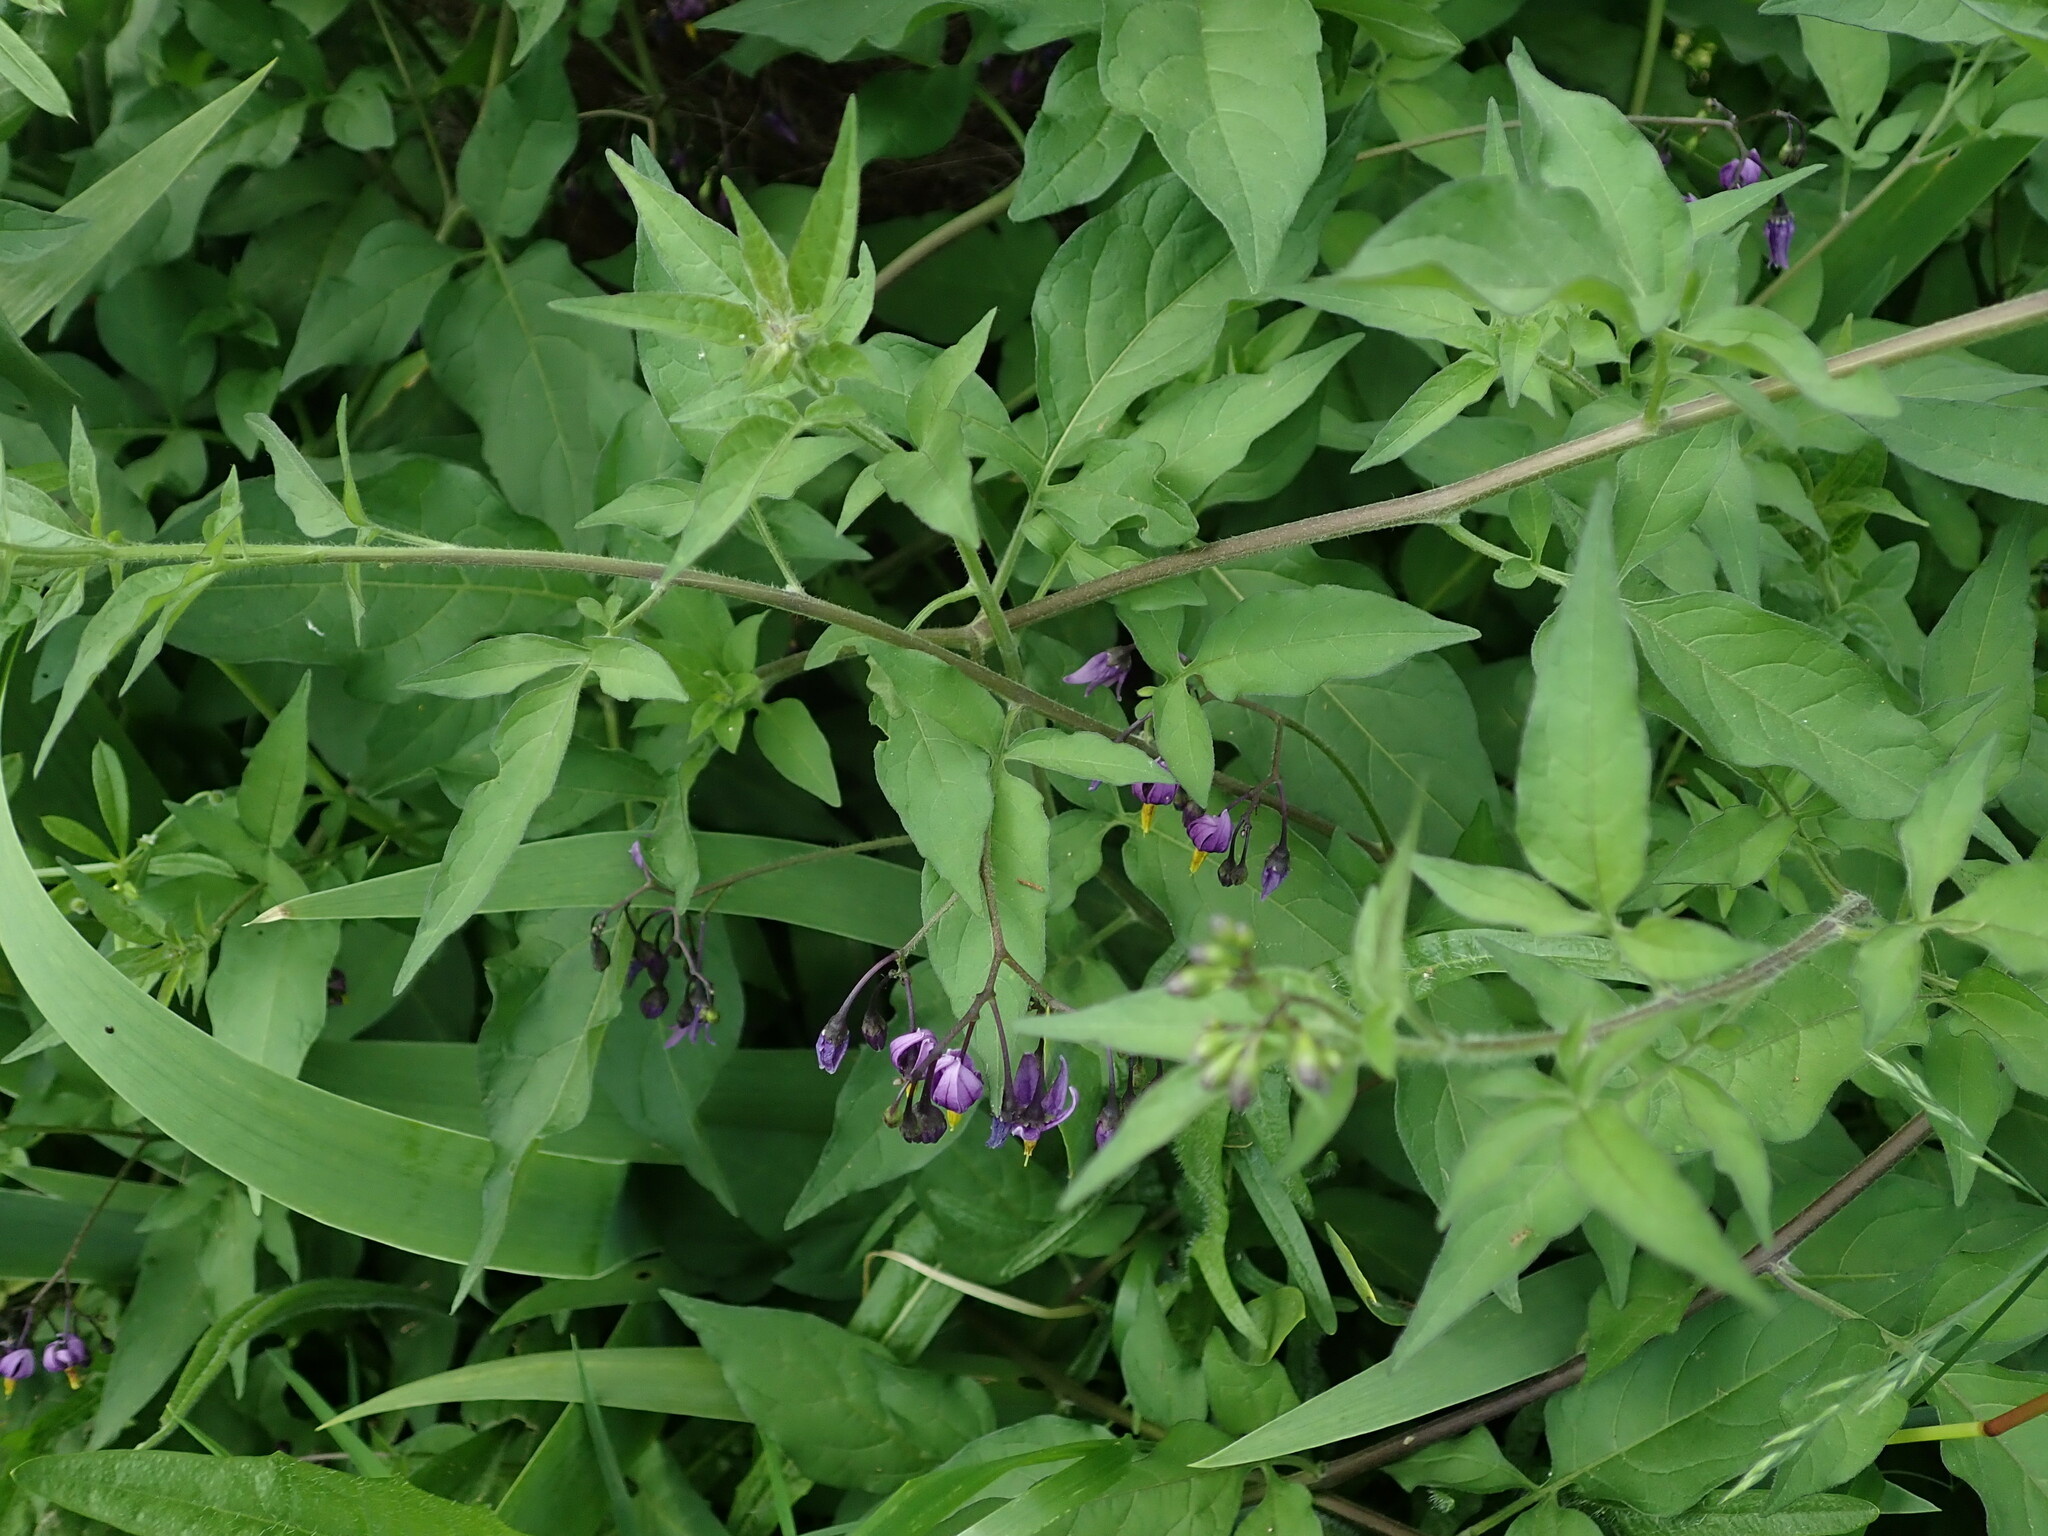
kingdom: Plantae
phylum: Tracheophyta
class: Magnoliopsida
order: Solanales
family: Solanaceae
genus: Solanum
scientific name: Solanum dulcamara
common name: Climbing nightshade
